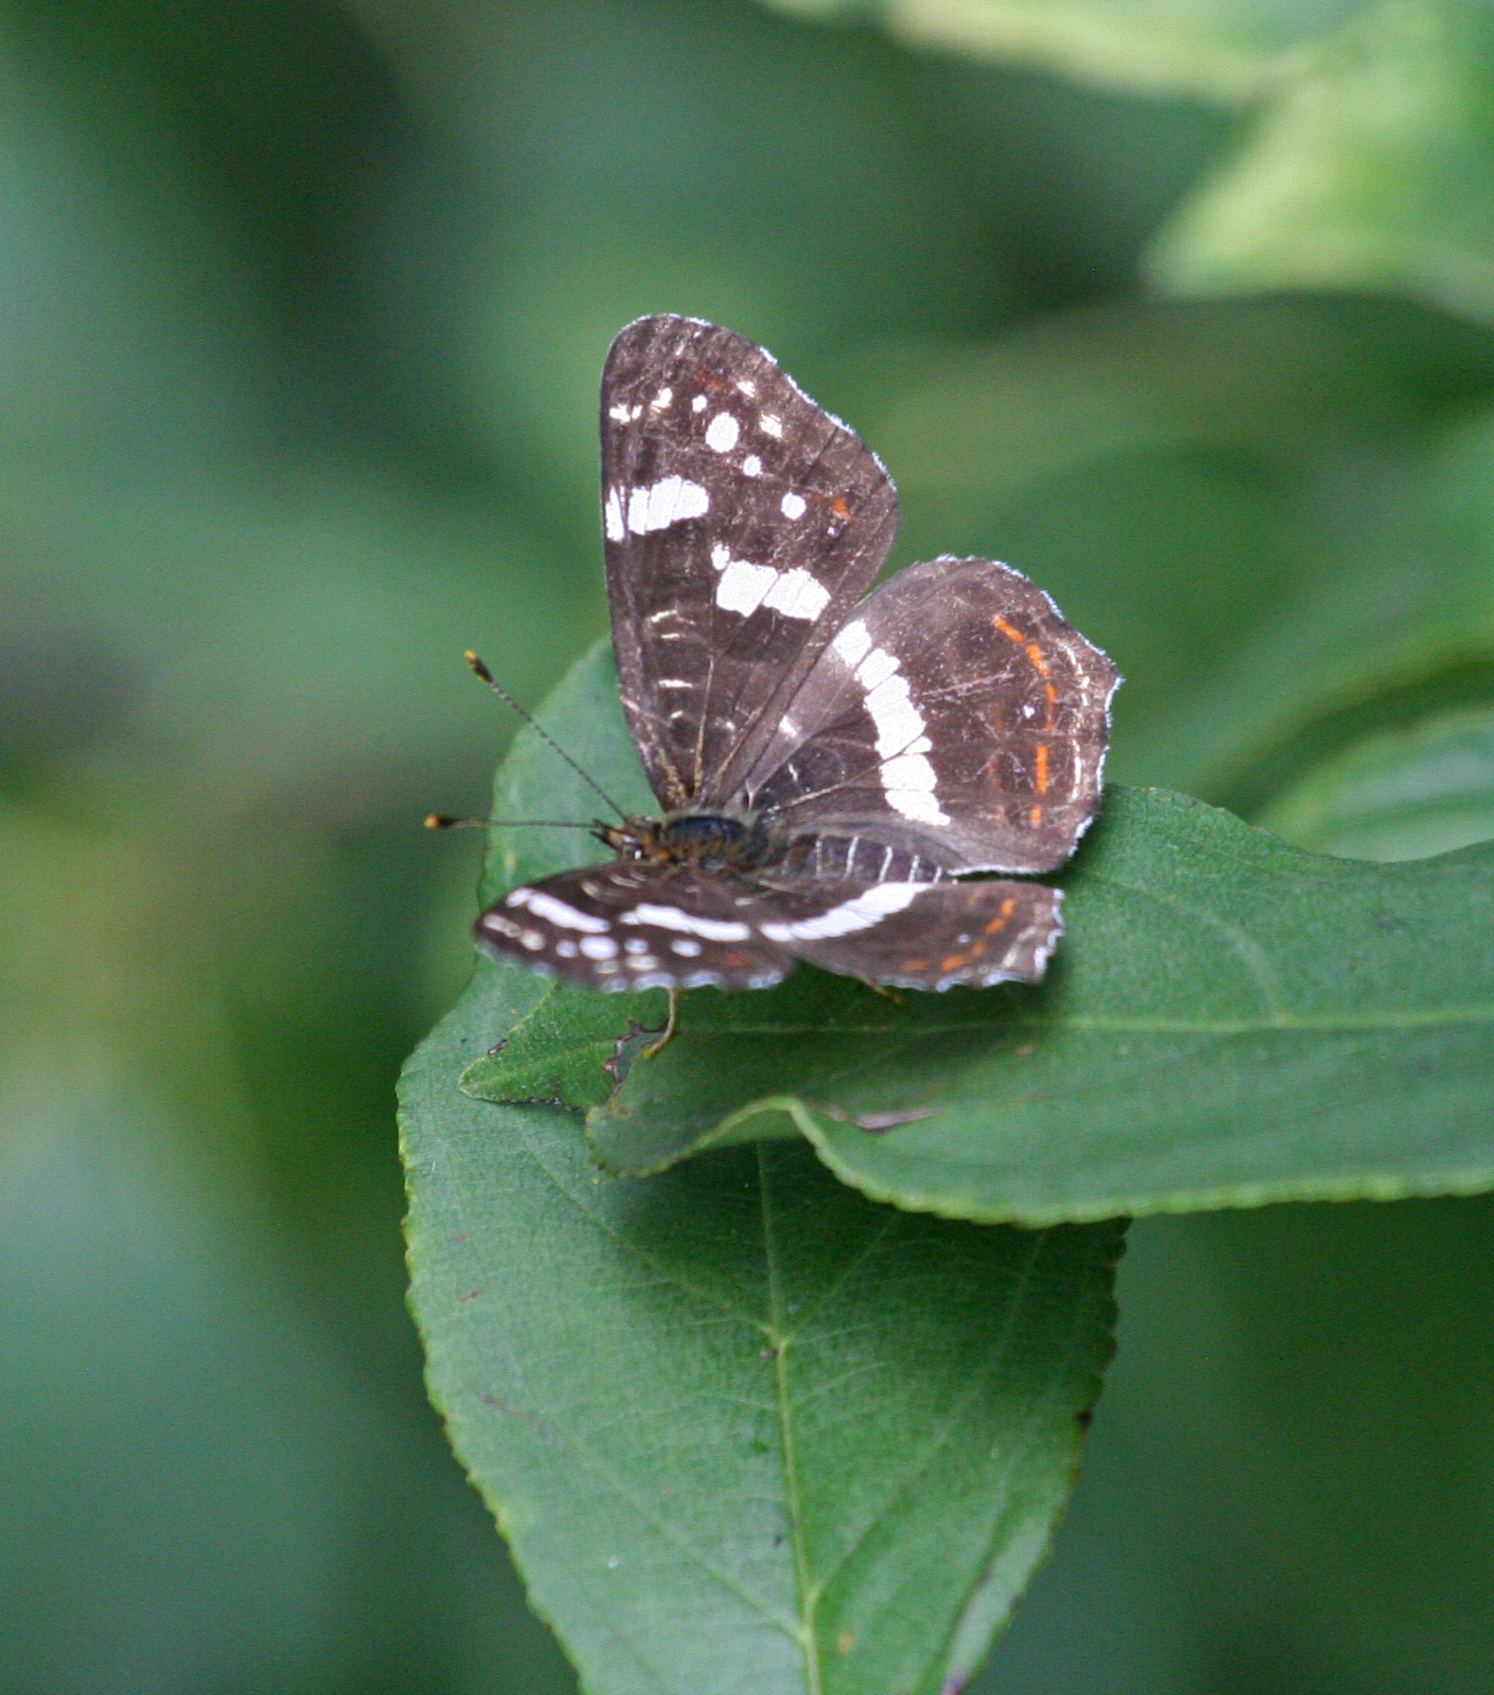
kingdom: Animalia
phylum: Arthropoda
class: Insecta
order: Lepidoptera
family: Nymphalidae
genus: Araschnia
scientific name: Araschnia levana
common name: Map butterfly
